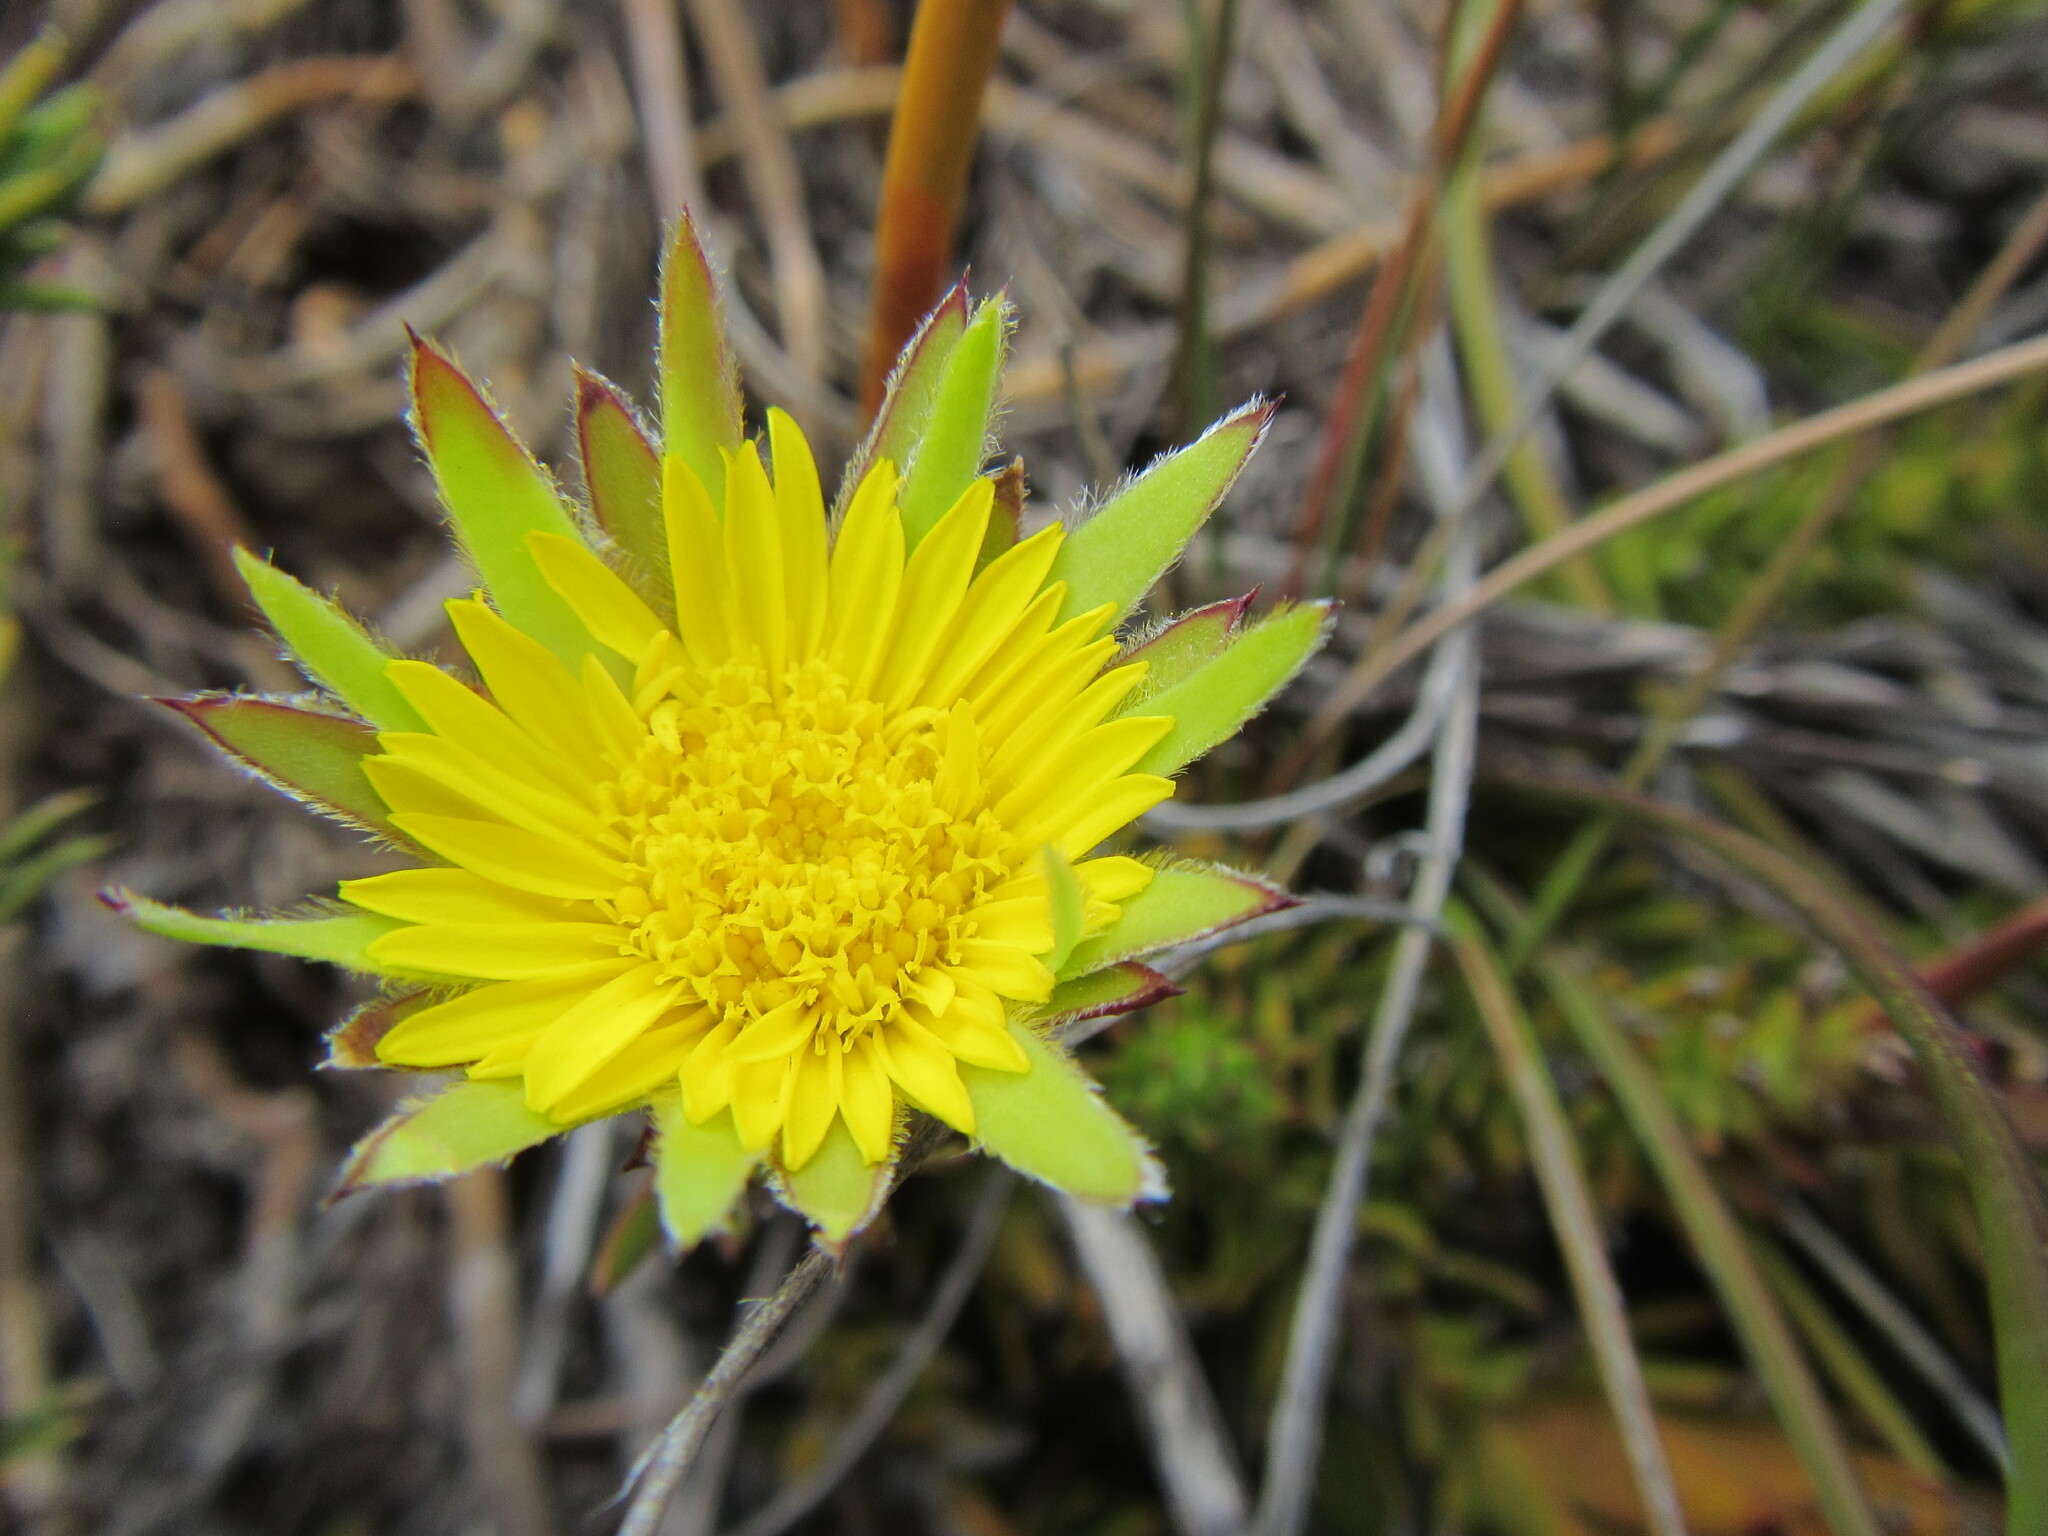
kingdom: Plantae
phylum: Tracheophyta
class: Magnoliopsida
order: Asterales
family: Asteraceae
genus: Oedera
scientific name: Oedera capensis
